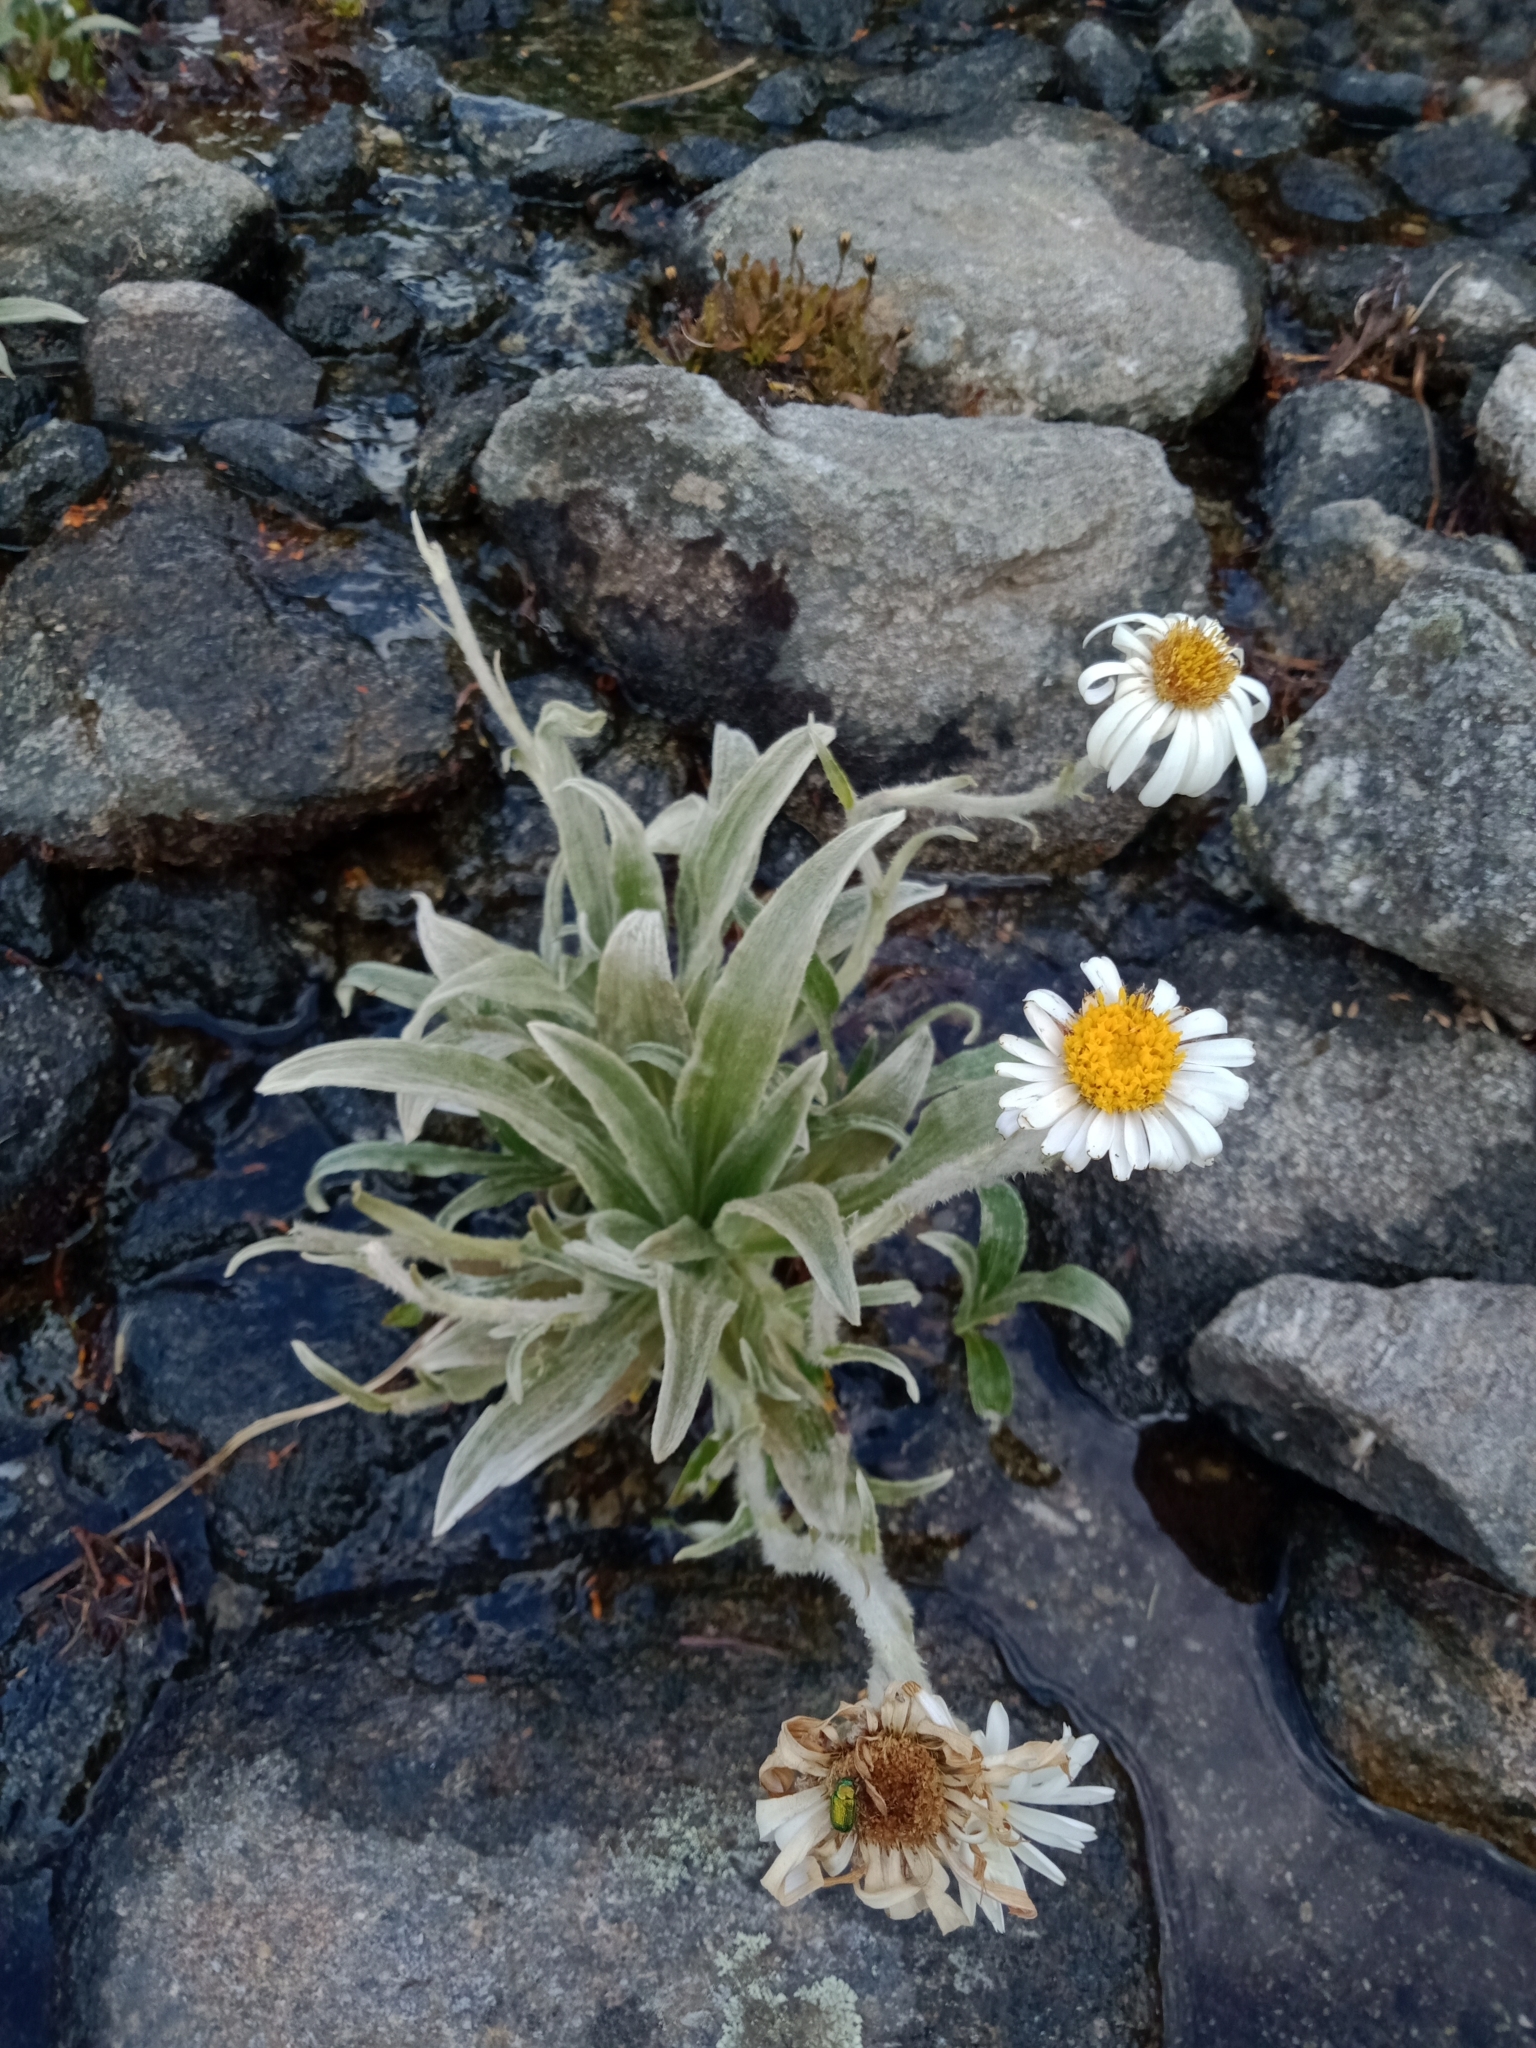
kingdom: Plantae
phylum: Tracheophyta
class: Magnoliopsida
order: Asterales
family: Asteraceae
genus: Celmisia
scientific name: Celmisia sericophylla
